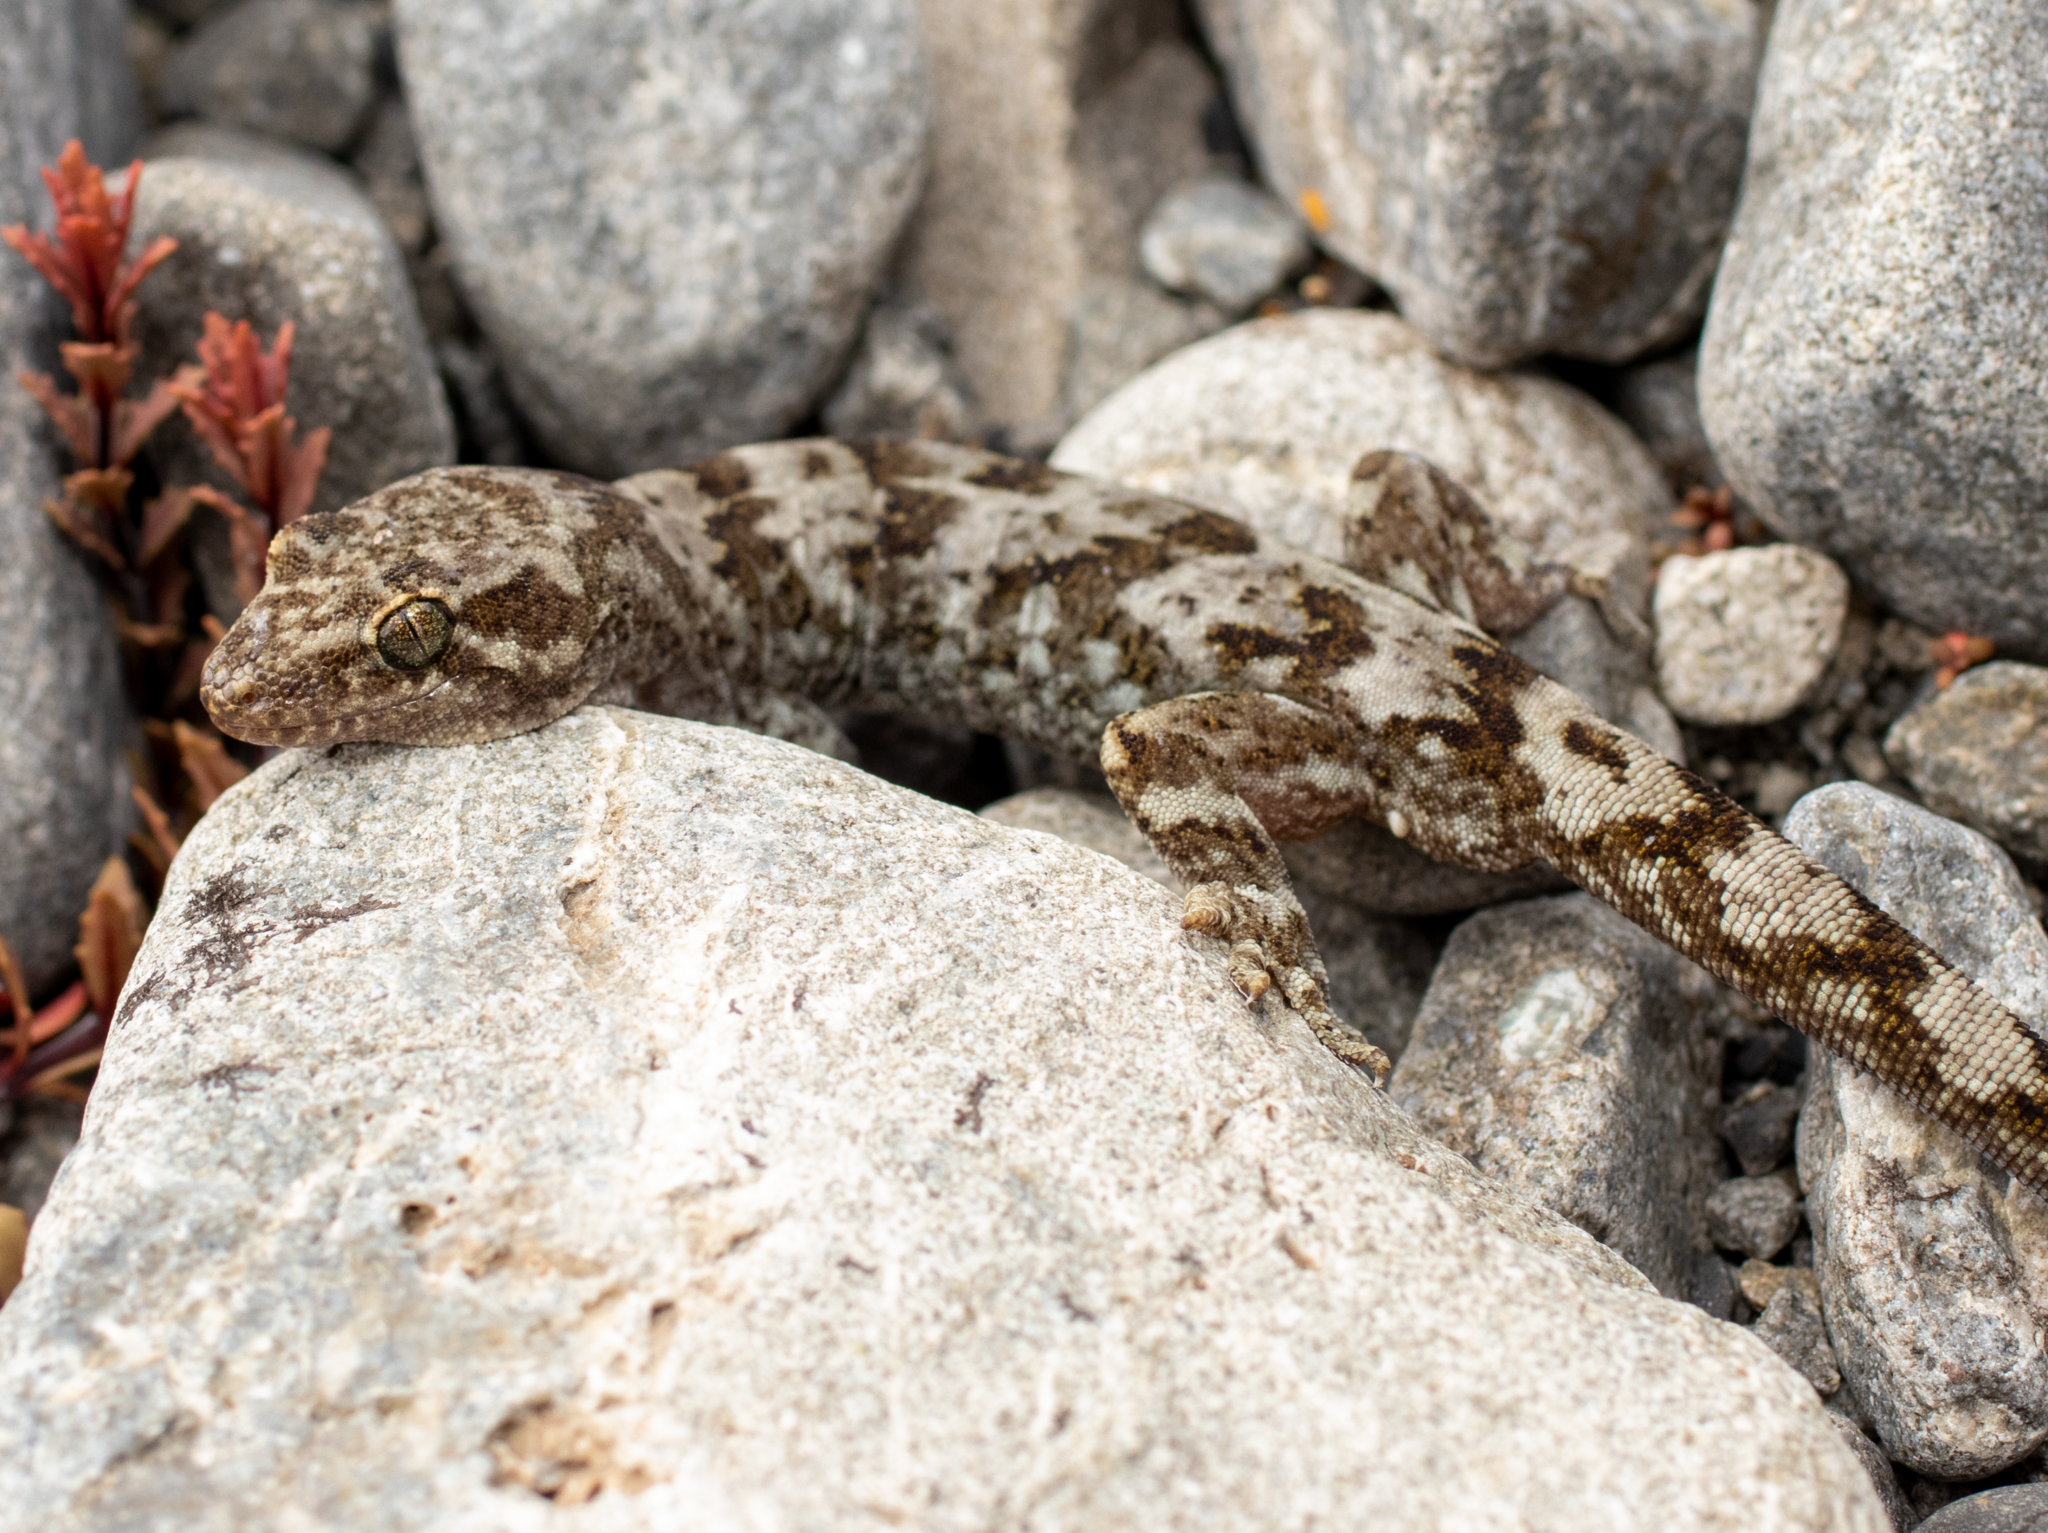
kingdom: Animalia
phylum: Chordata
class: Squamata
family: Diplodactylidae
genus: Woodworthia
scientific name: Woodworthia
